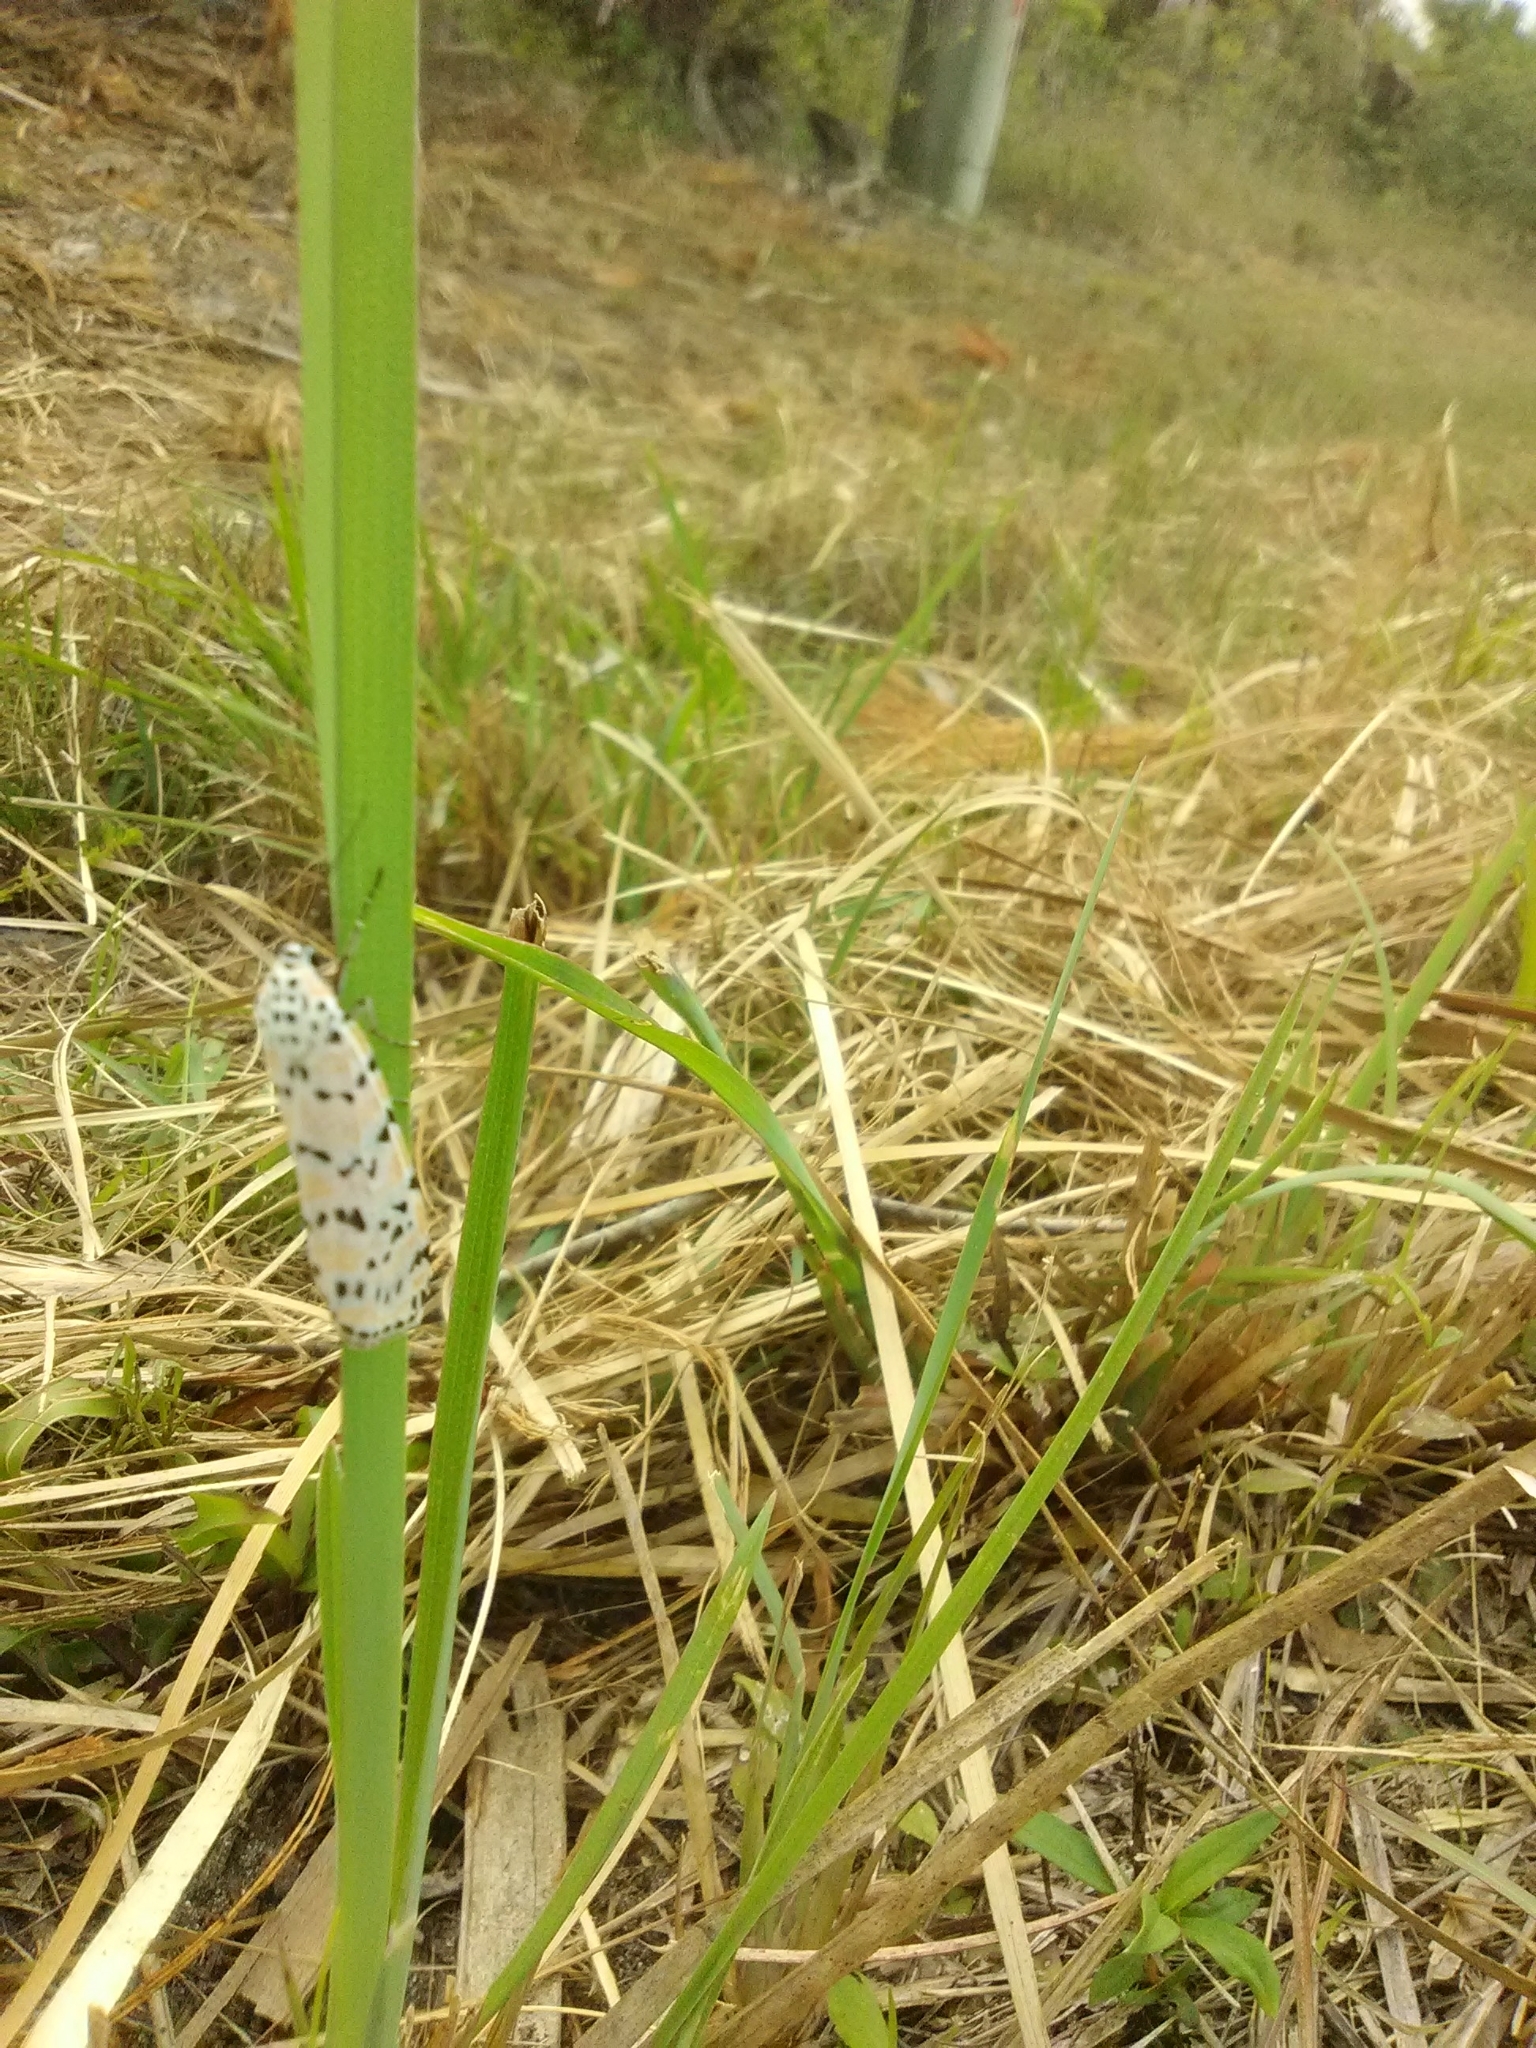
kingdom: Animalia
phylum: Arthropoda
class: Insecta
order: Lepidoptera
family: Erebidae
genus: Utetheisa
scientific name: Utetheisa ornatrix
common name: Beautiful utetheisa
